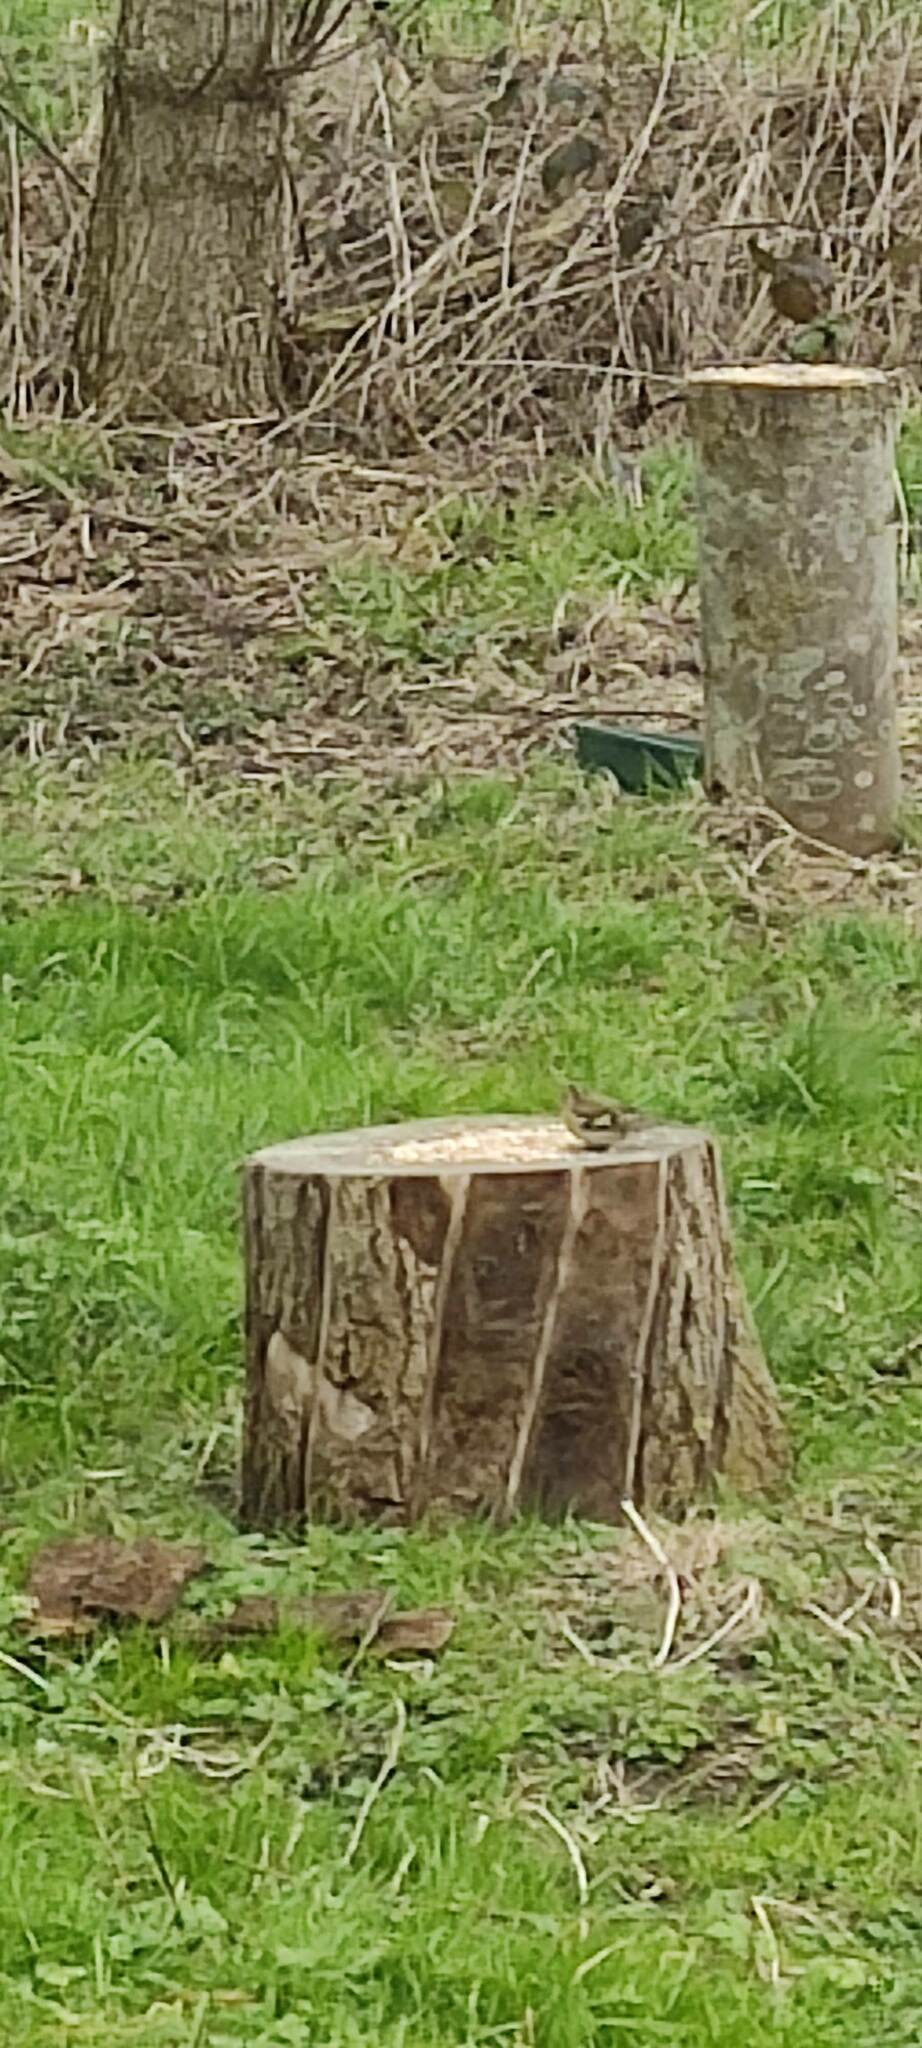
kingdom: Animalia
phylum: Chordata
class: Aves
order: Passeriformes
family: Fringillidae
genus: Fringilla
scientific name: Fringilla coelebs
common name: Common chaffinch
